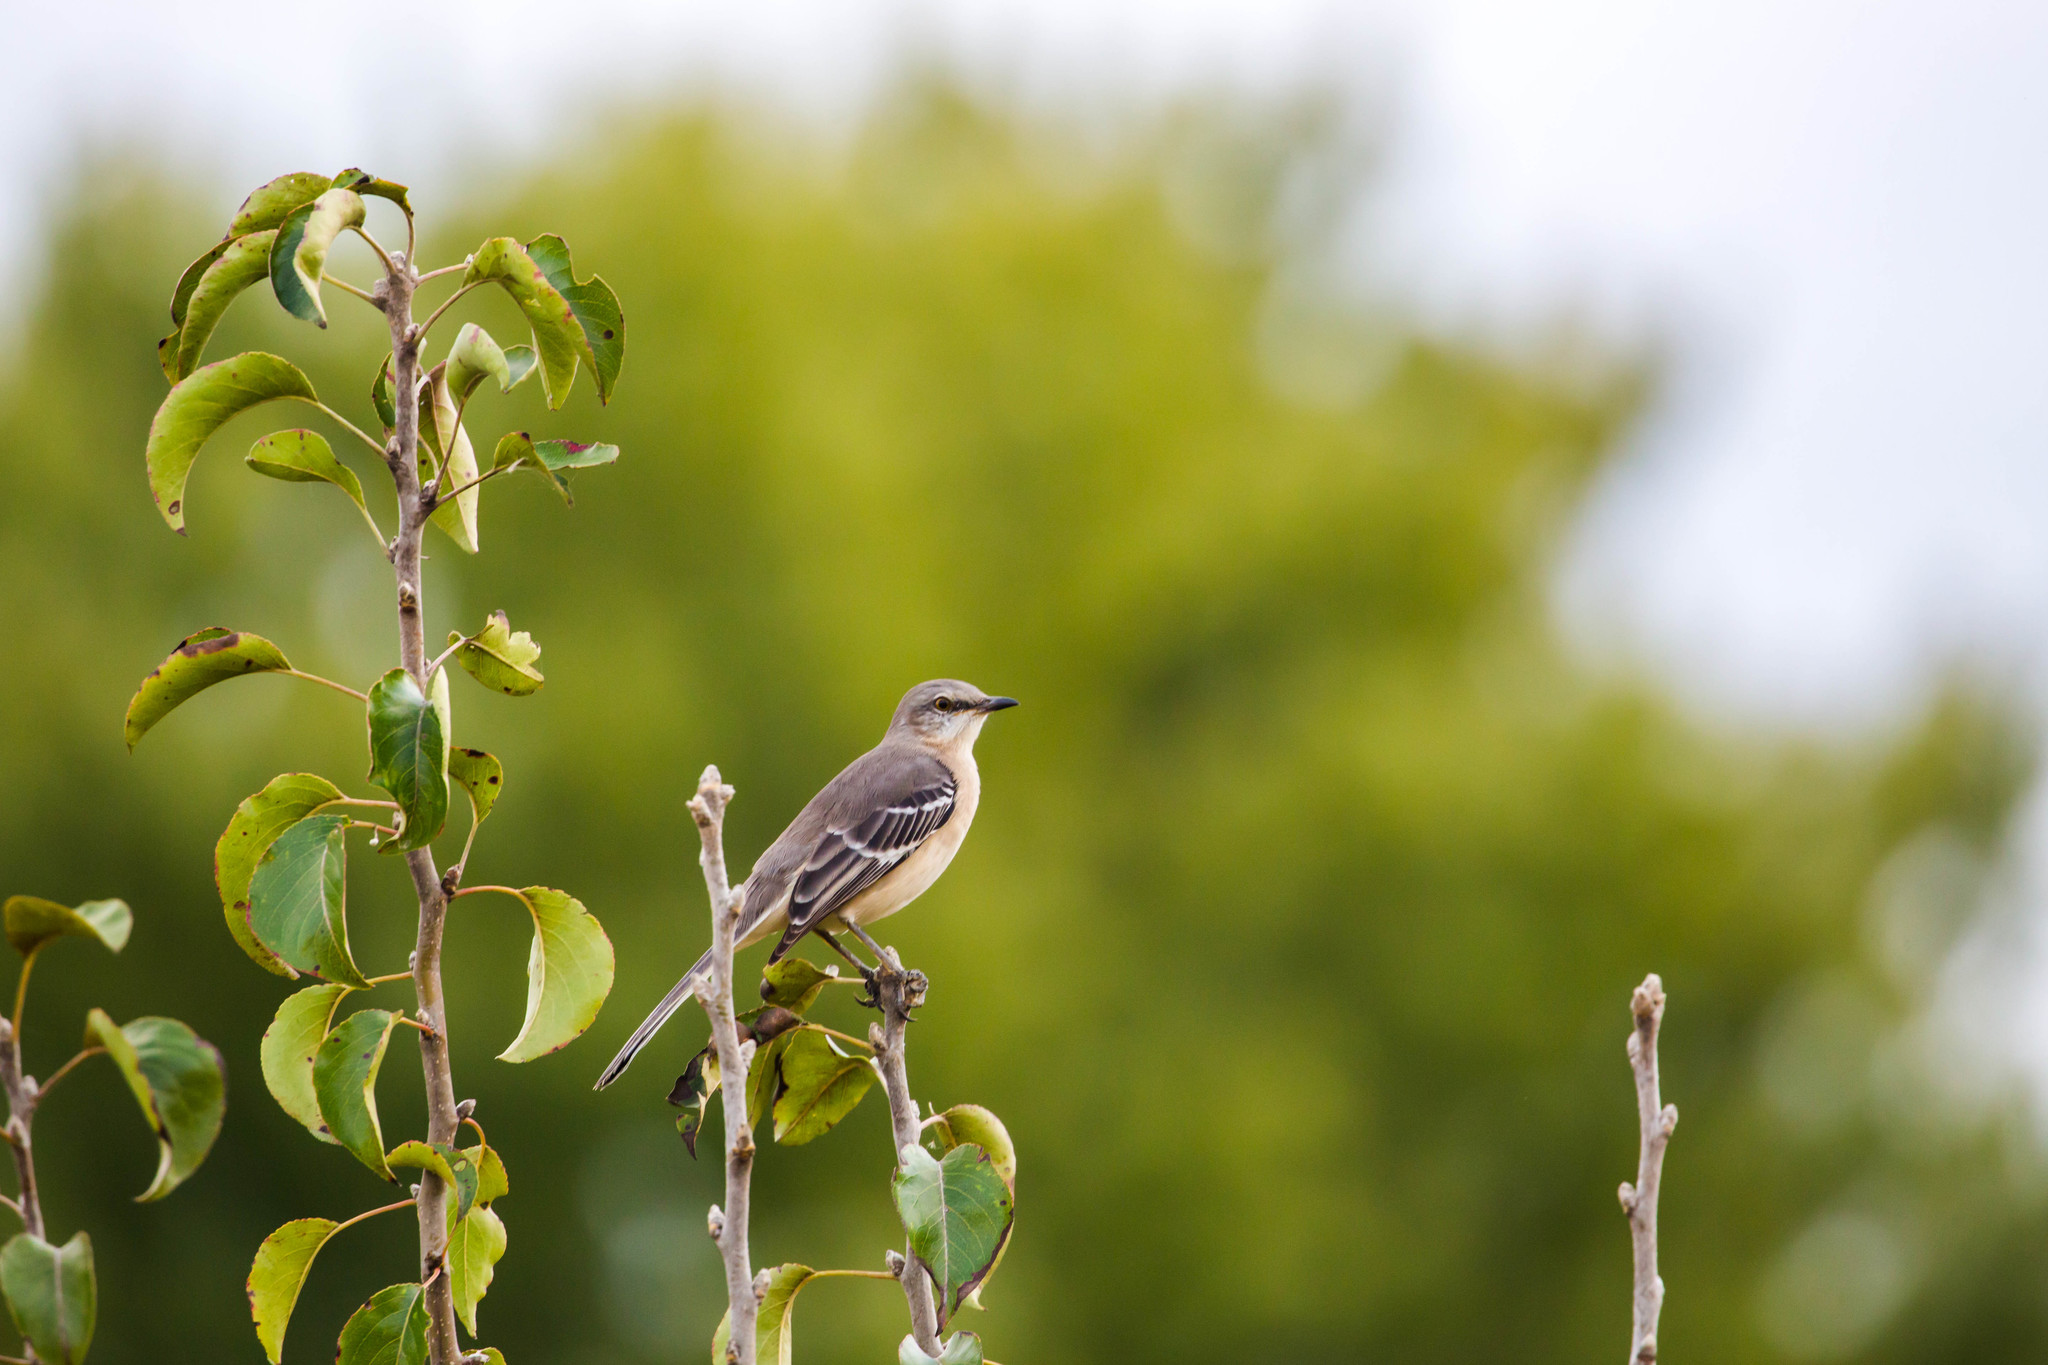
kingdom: Animalia
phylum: Chordata
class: Aves
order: Passeriformes
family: Mimidae
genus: Mimus
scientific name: Mimus polyglottos
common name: Northern mockingbird
